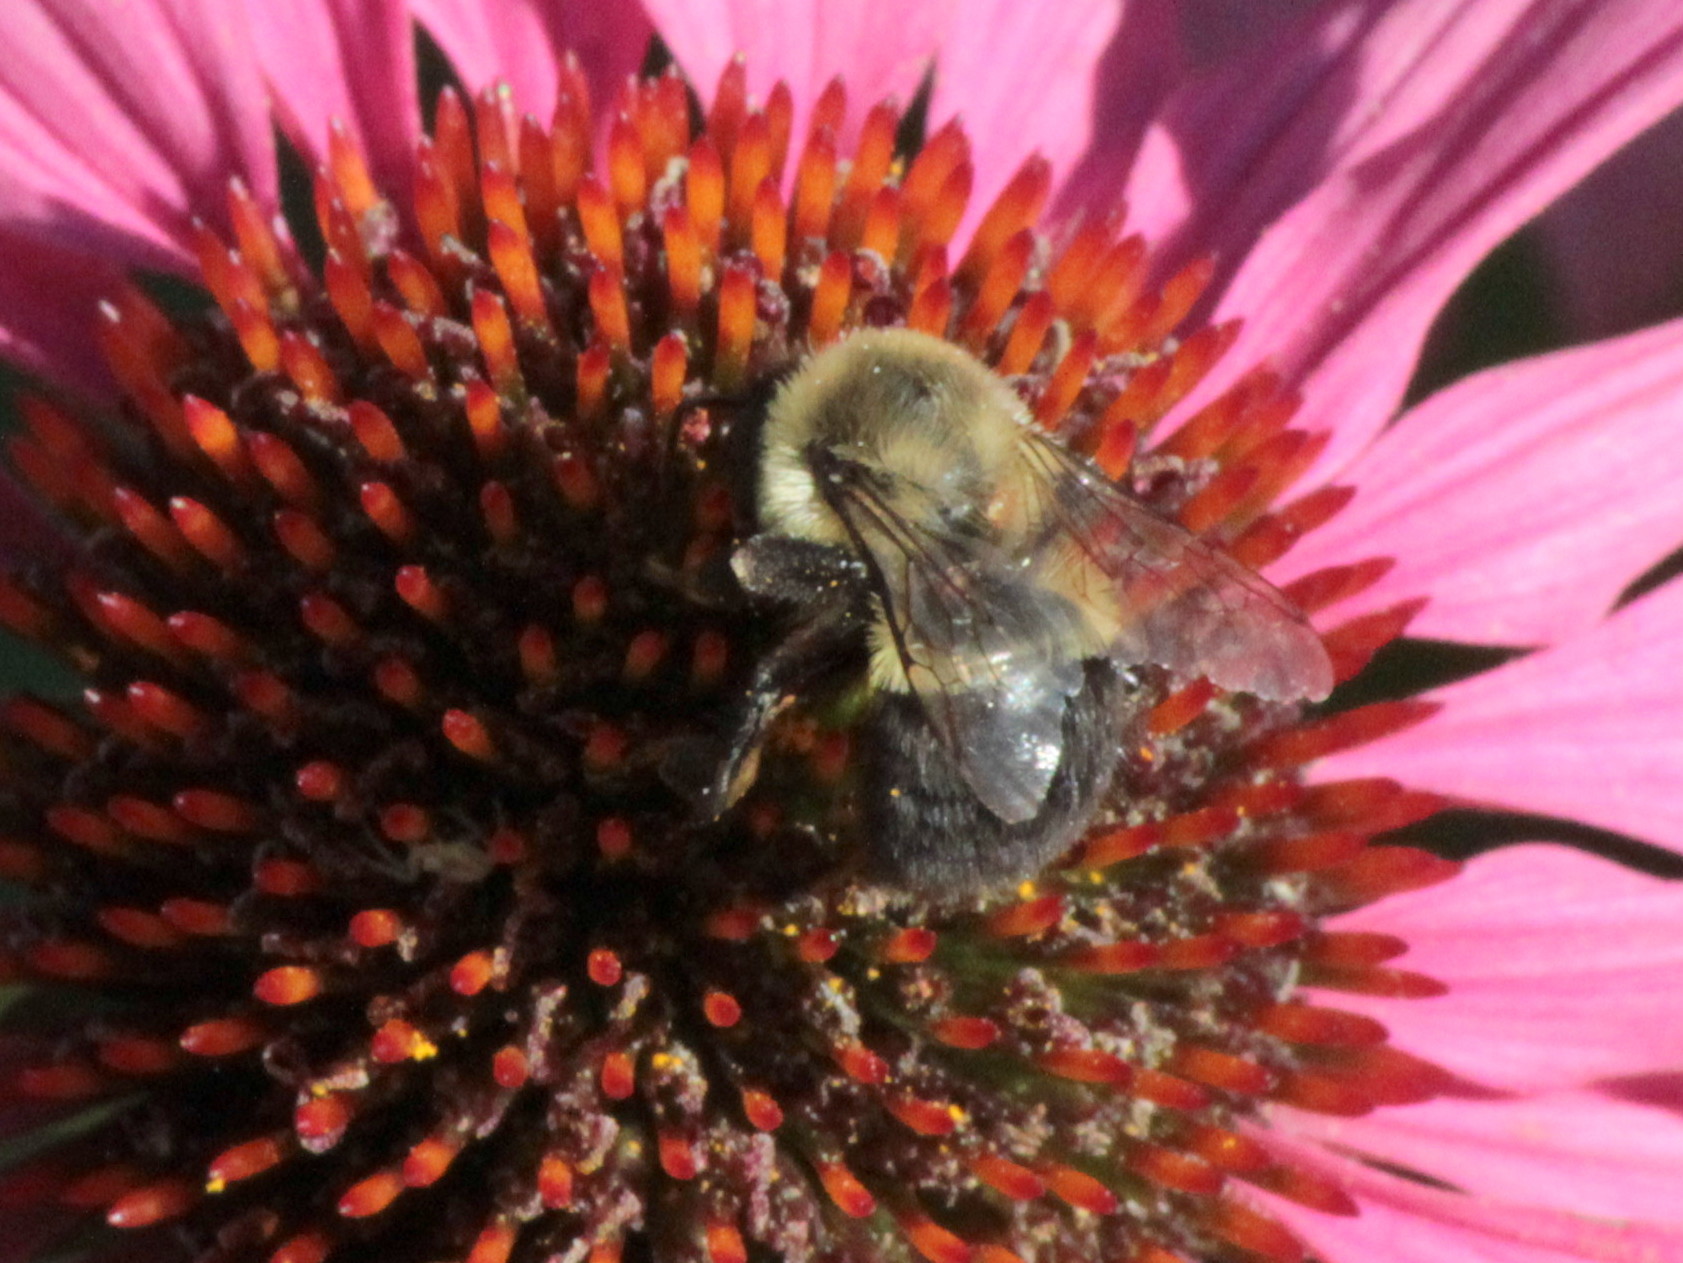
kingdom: Animalia
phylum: Arthropoda
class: Insecta
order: Hymenoptera
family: Apidae
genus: Bombus
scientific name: Bombus impatiens
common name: Common eastern bumble bee
